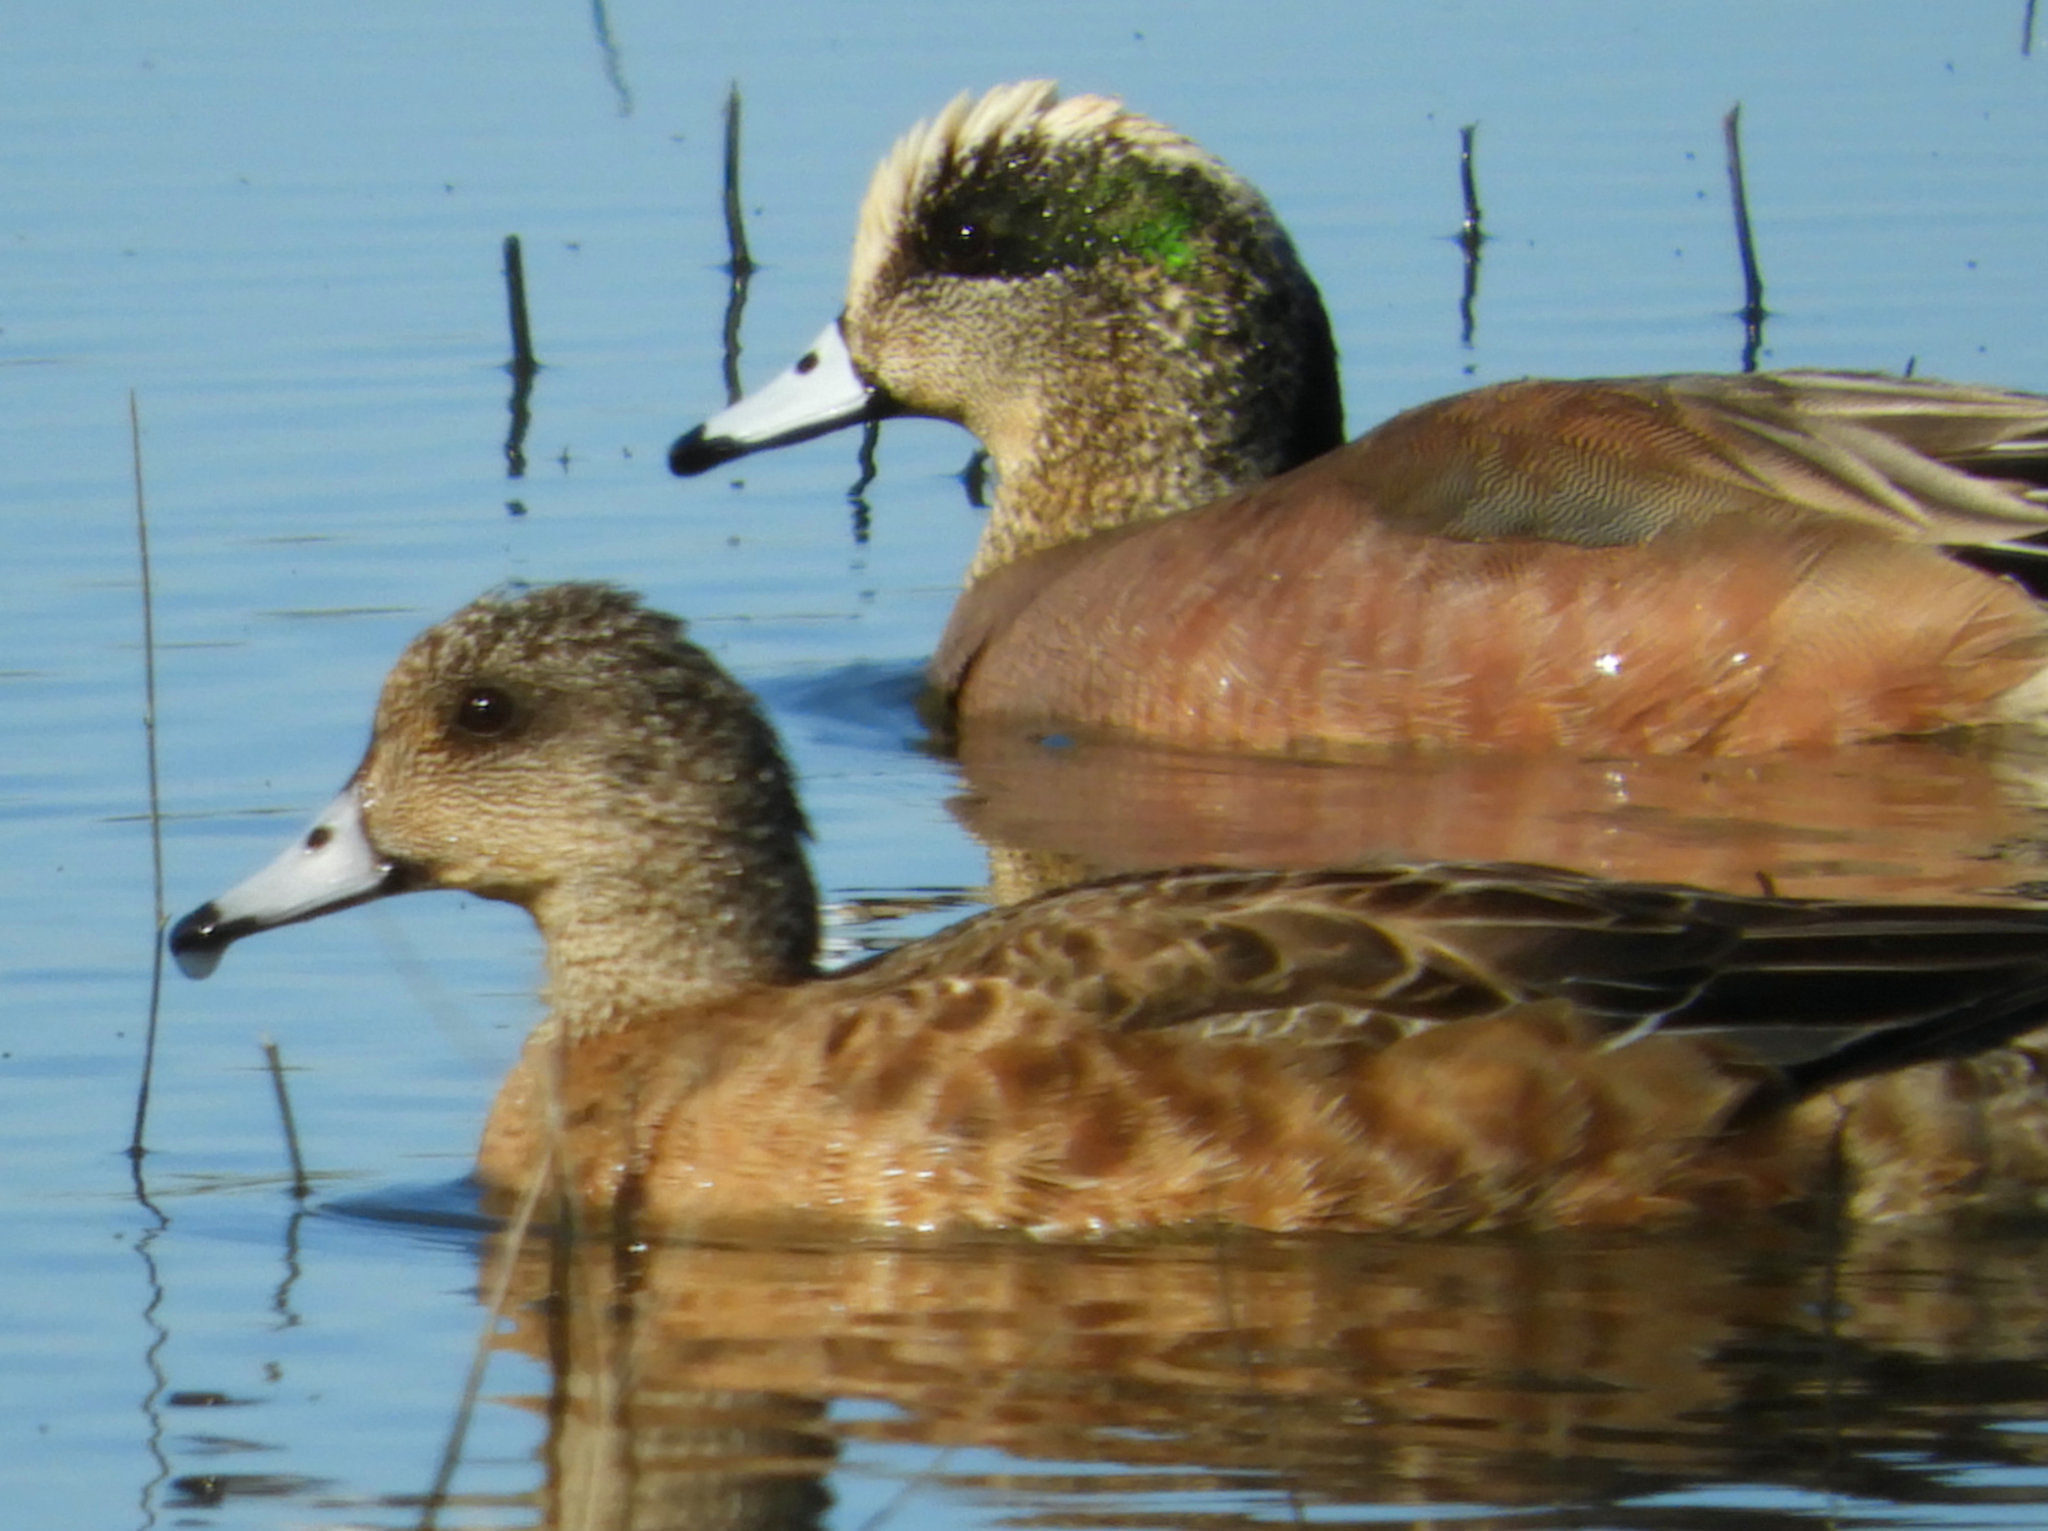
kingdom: Animalia
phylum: Chordata
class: Aves
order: Anseriformes
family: Anatidae
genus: Mareca
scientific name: Mareca americana
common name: American wigeon
